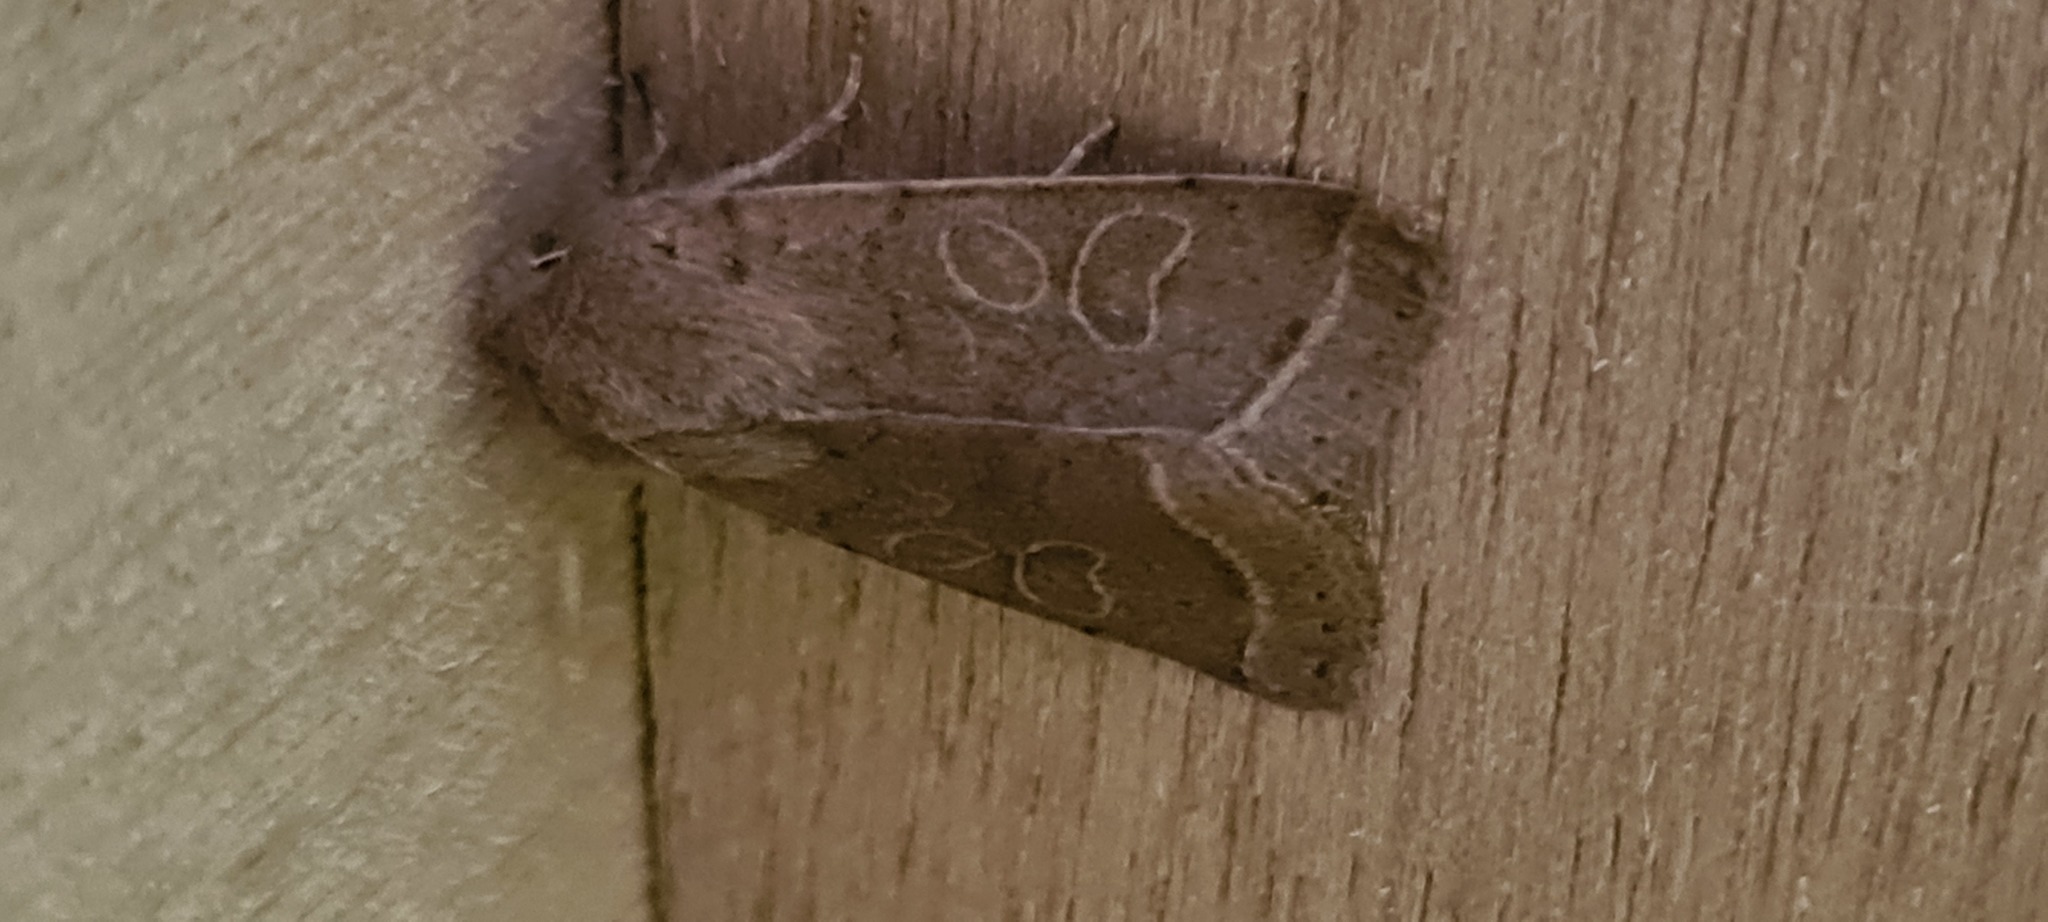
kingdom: Animalia
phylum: Arthropoda
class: Insecta
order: Lepidoptera
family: Noctuidae
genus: Orthosia
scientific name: Orthosia cerasi
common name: Common quaker
